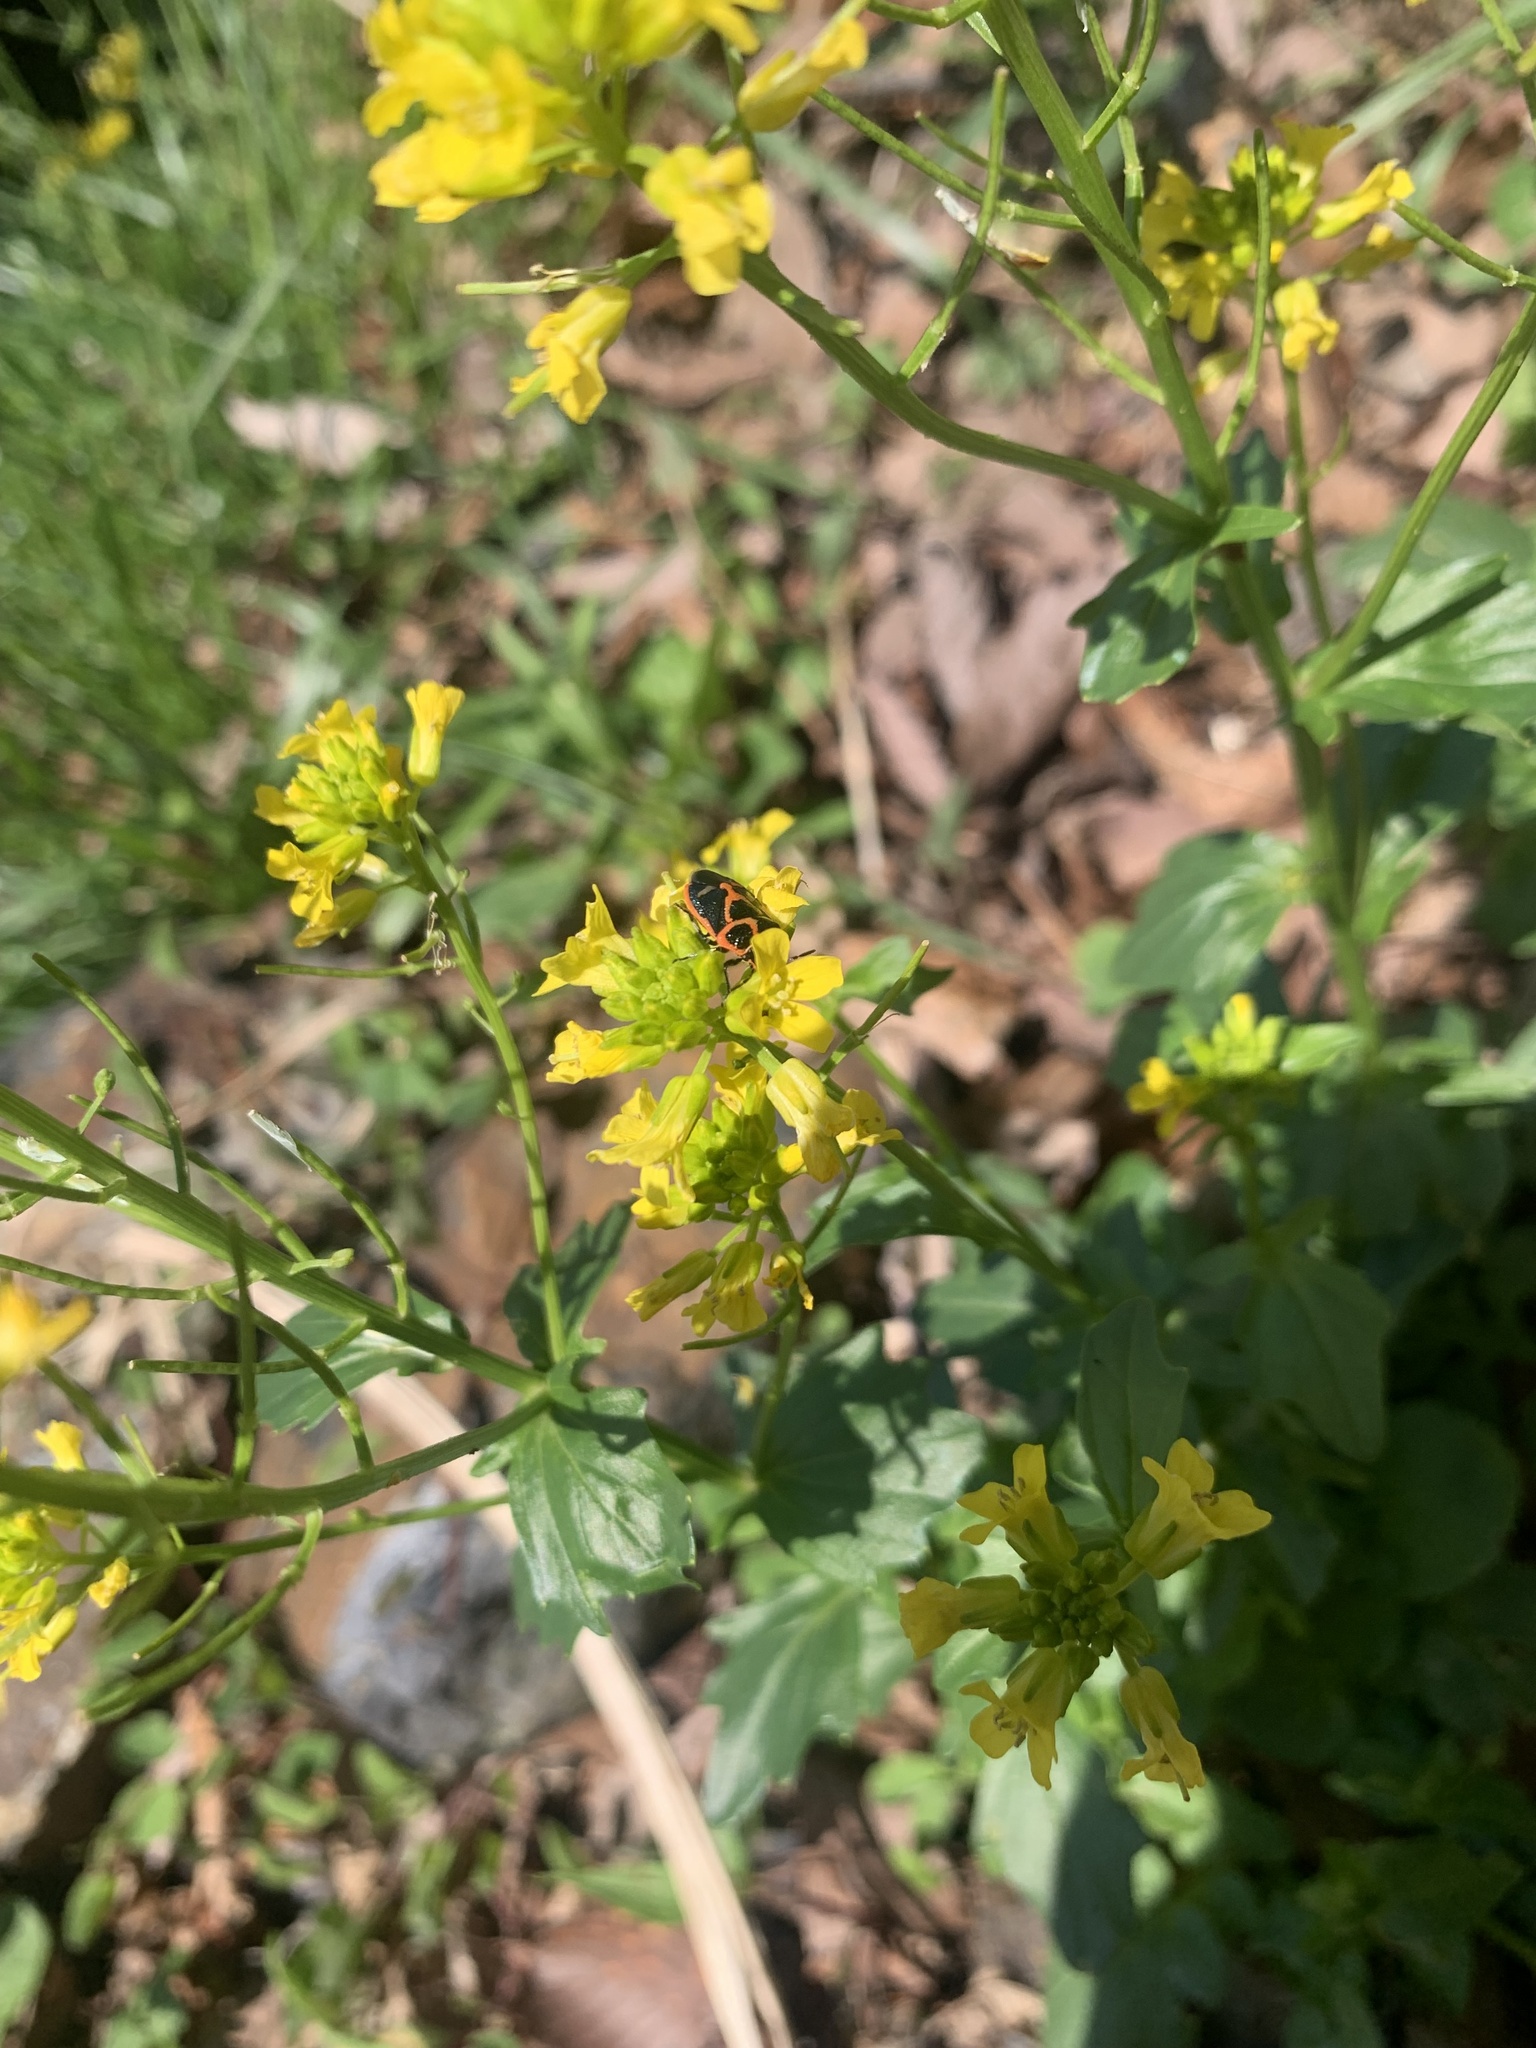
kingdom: Plantae
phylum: Tracheophyta
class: Magnoliopsida
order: Brassicales
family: Brassicaceae
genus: Barbarea
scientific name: Barbarea vulgaris
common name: Cressy-greens
